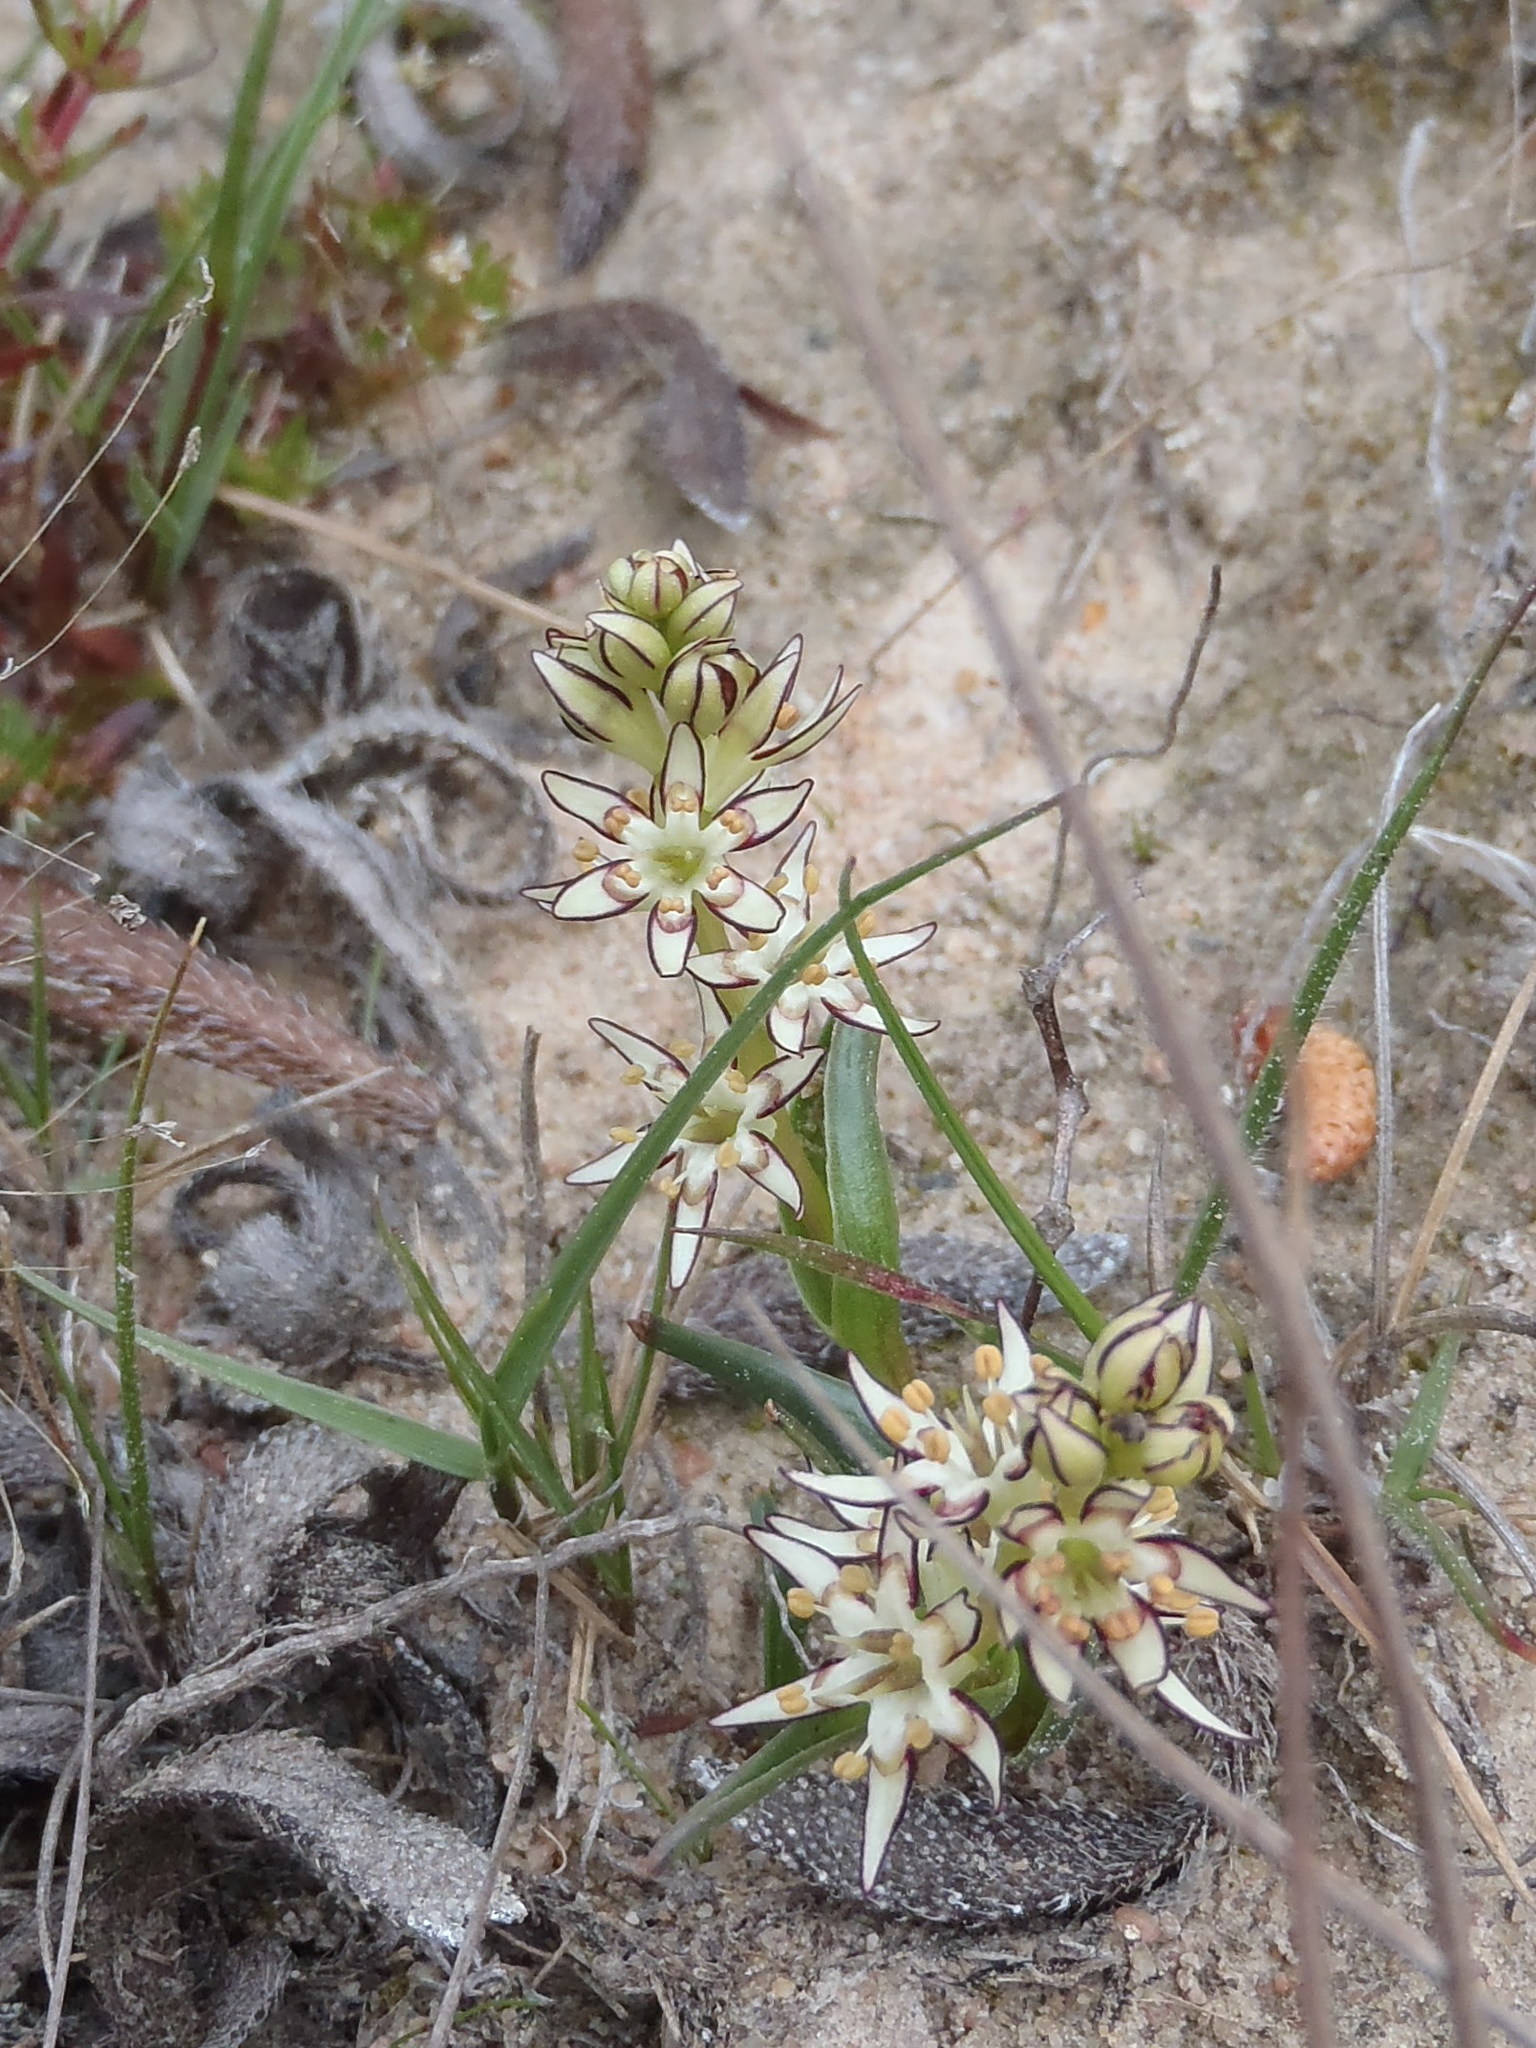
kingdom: Plantae
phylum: Tracheophyta
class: Liliopsida
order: Liliales
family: Colchicaceae
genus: Wurmbea
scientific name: Wurmbea variabilis
